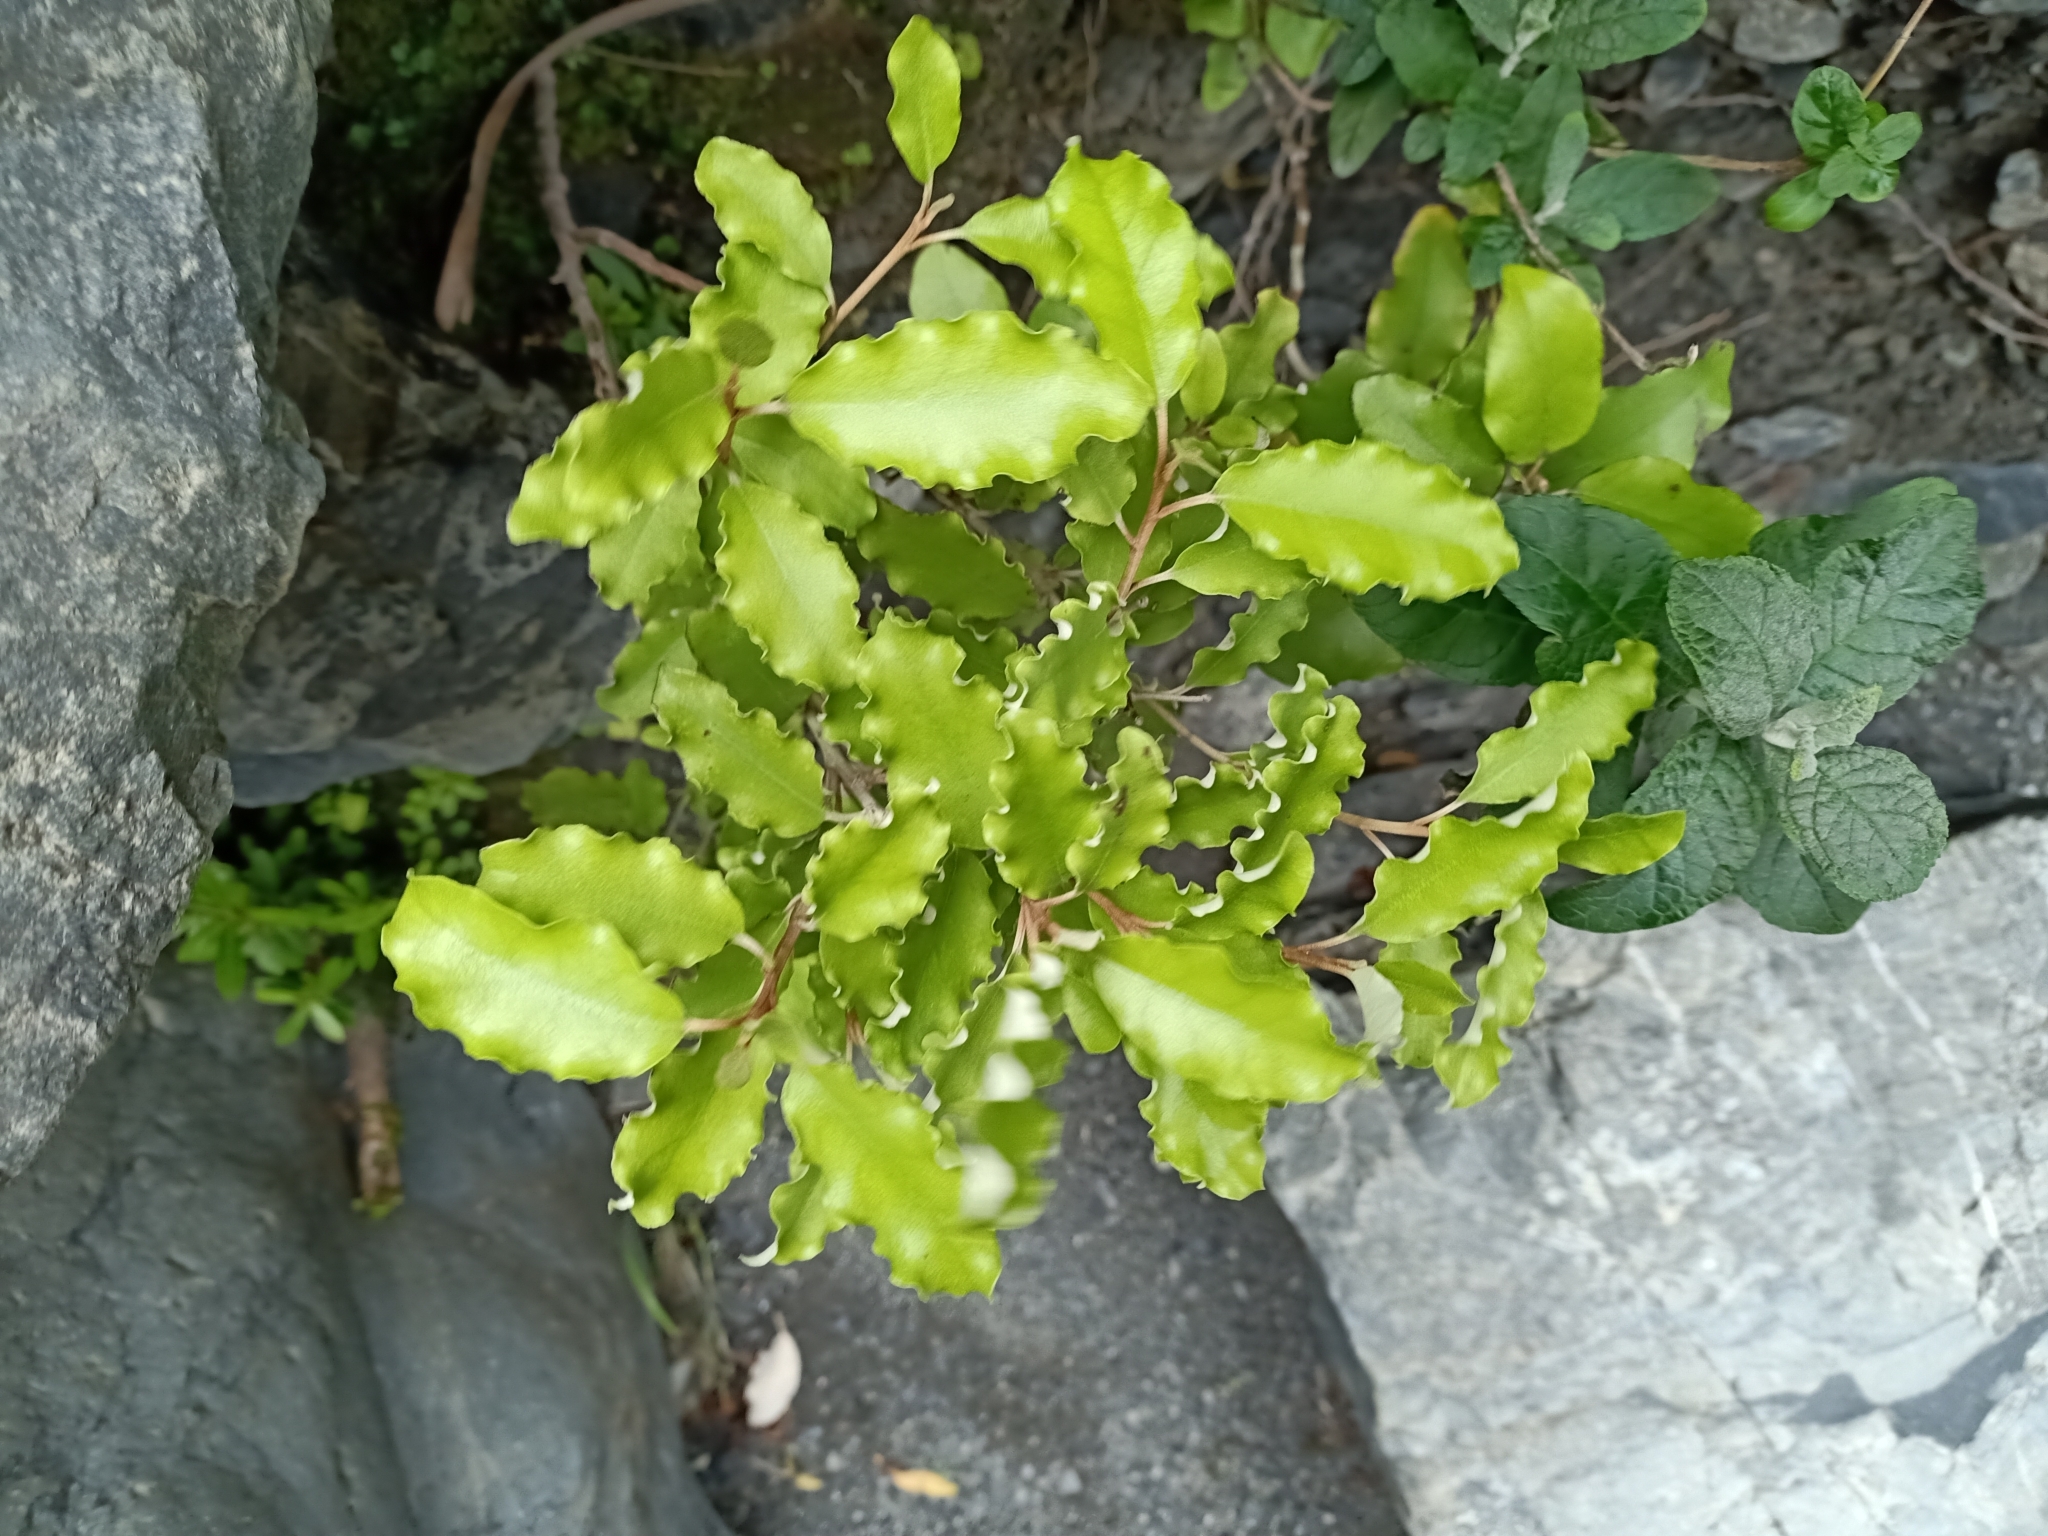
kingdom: Plantae
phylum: Tracheophyta
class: Magnoliopsida
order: Asterales
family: Asteraceae
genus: Olearia
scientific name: Olearia paniculata
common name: Akiraho
